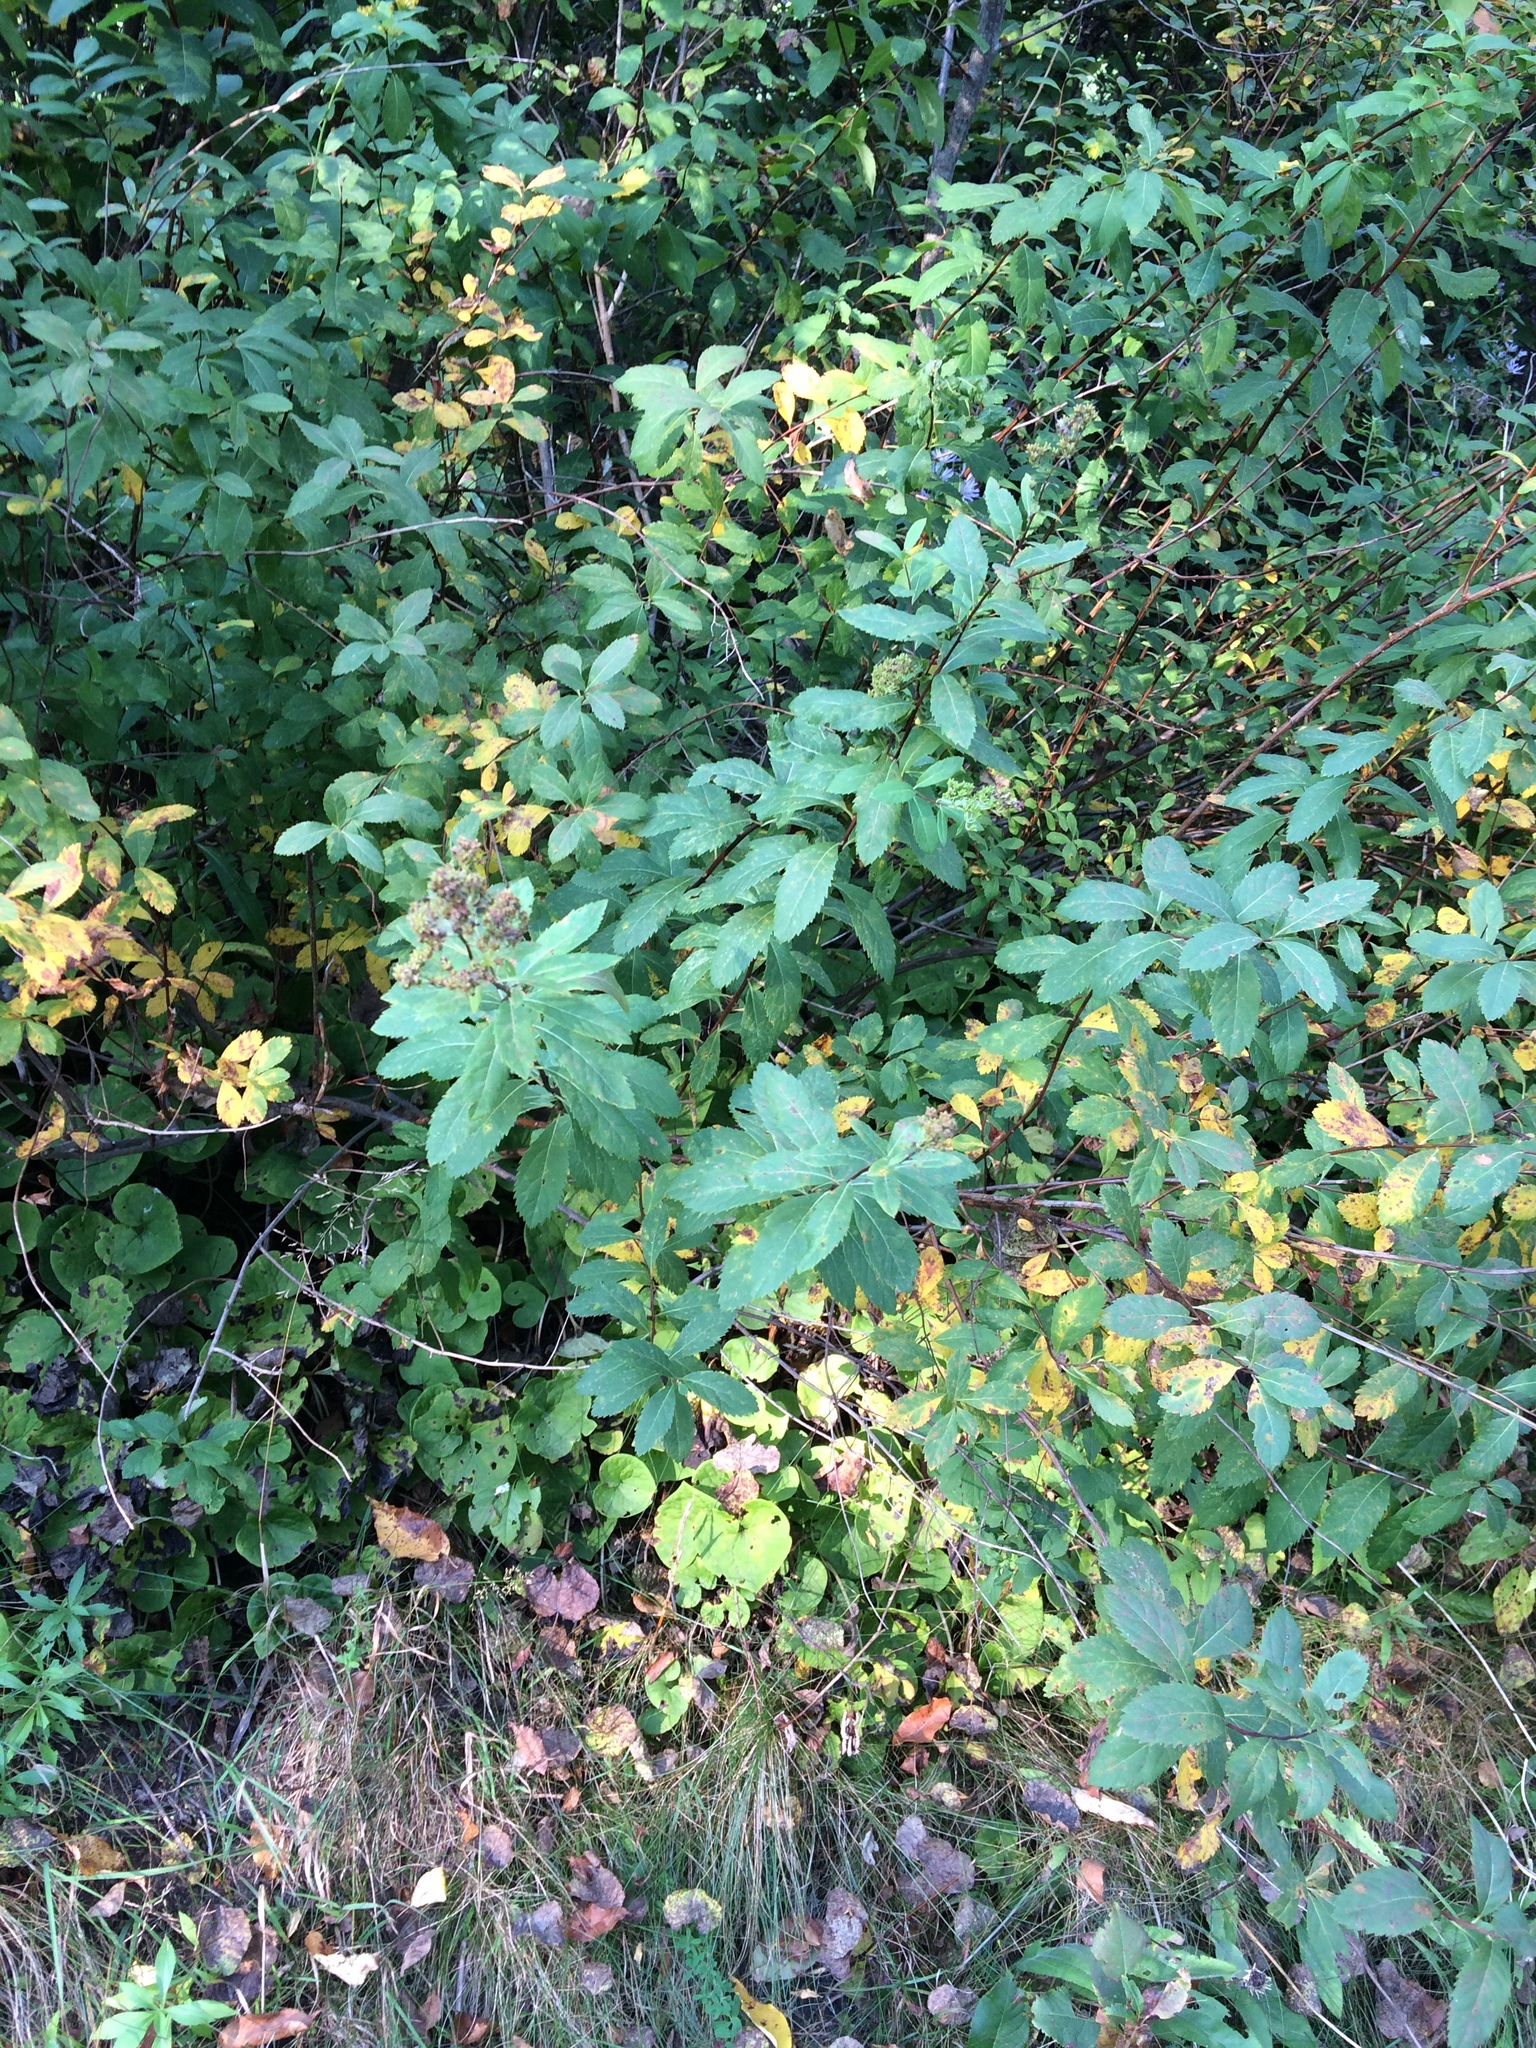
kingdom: Plantae
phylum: Tracheophyta
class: Magnoliopsida
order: Rosales
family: Rosaceae
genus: Spiraea
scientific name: Spiraea alba
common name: Pale bridewort
